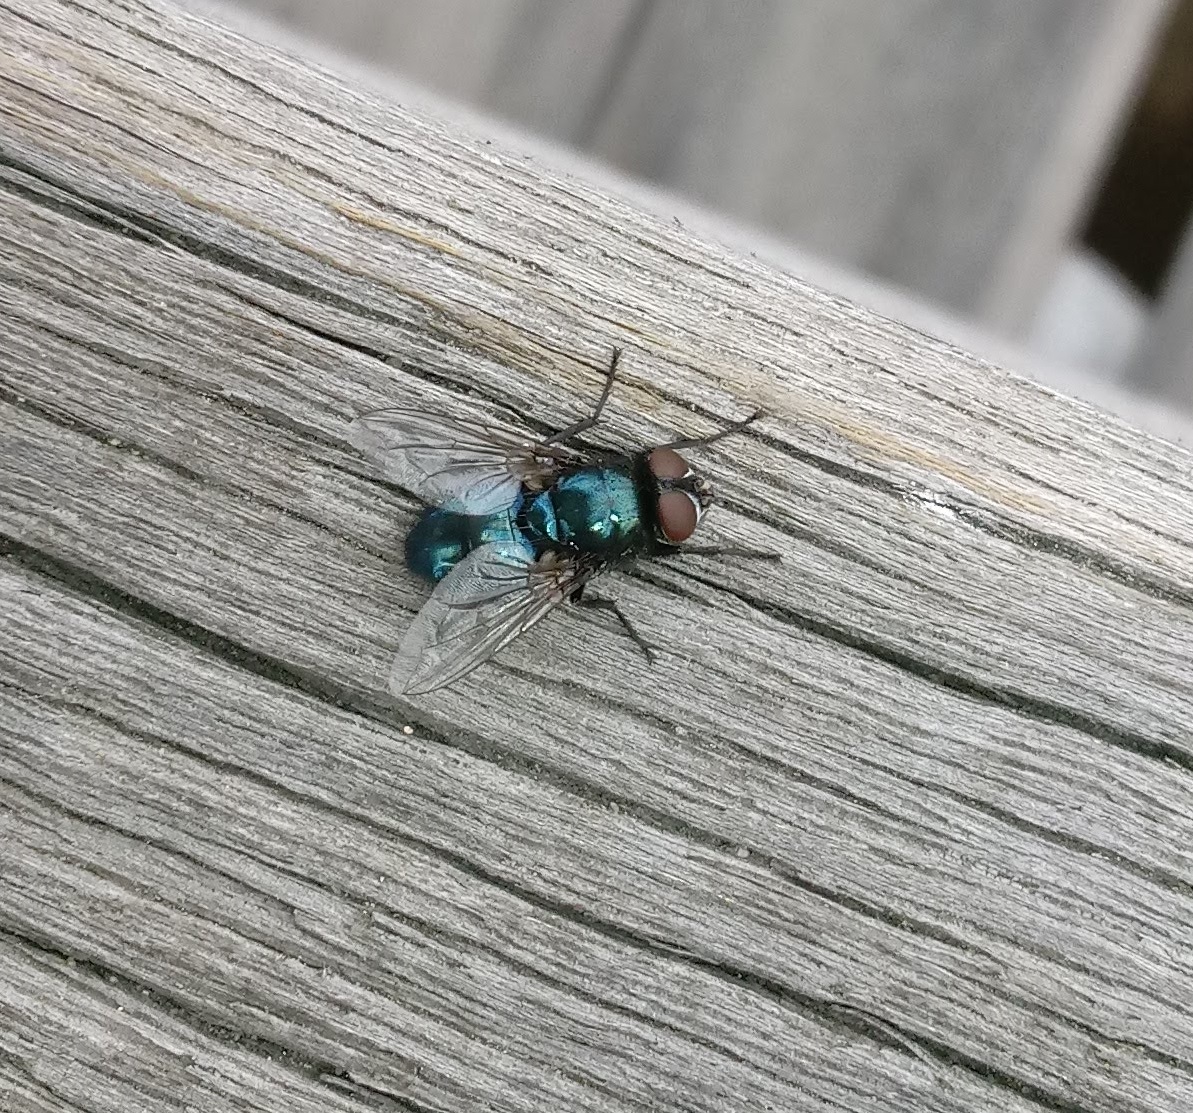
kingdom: Animalia
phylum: Arthropoda
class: Insecta
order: Diptera
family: Calliphoridae
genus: Protophormia
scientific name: Protophormia terraenovae
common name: Blackbottle
